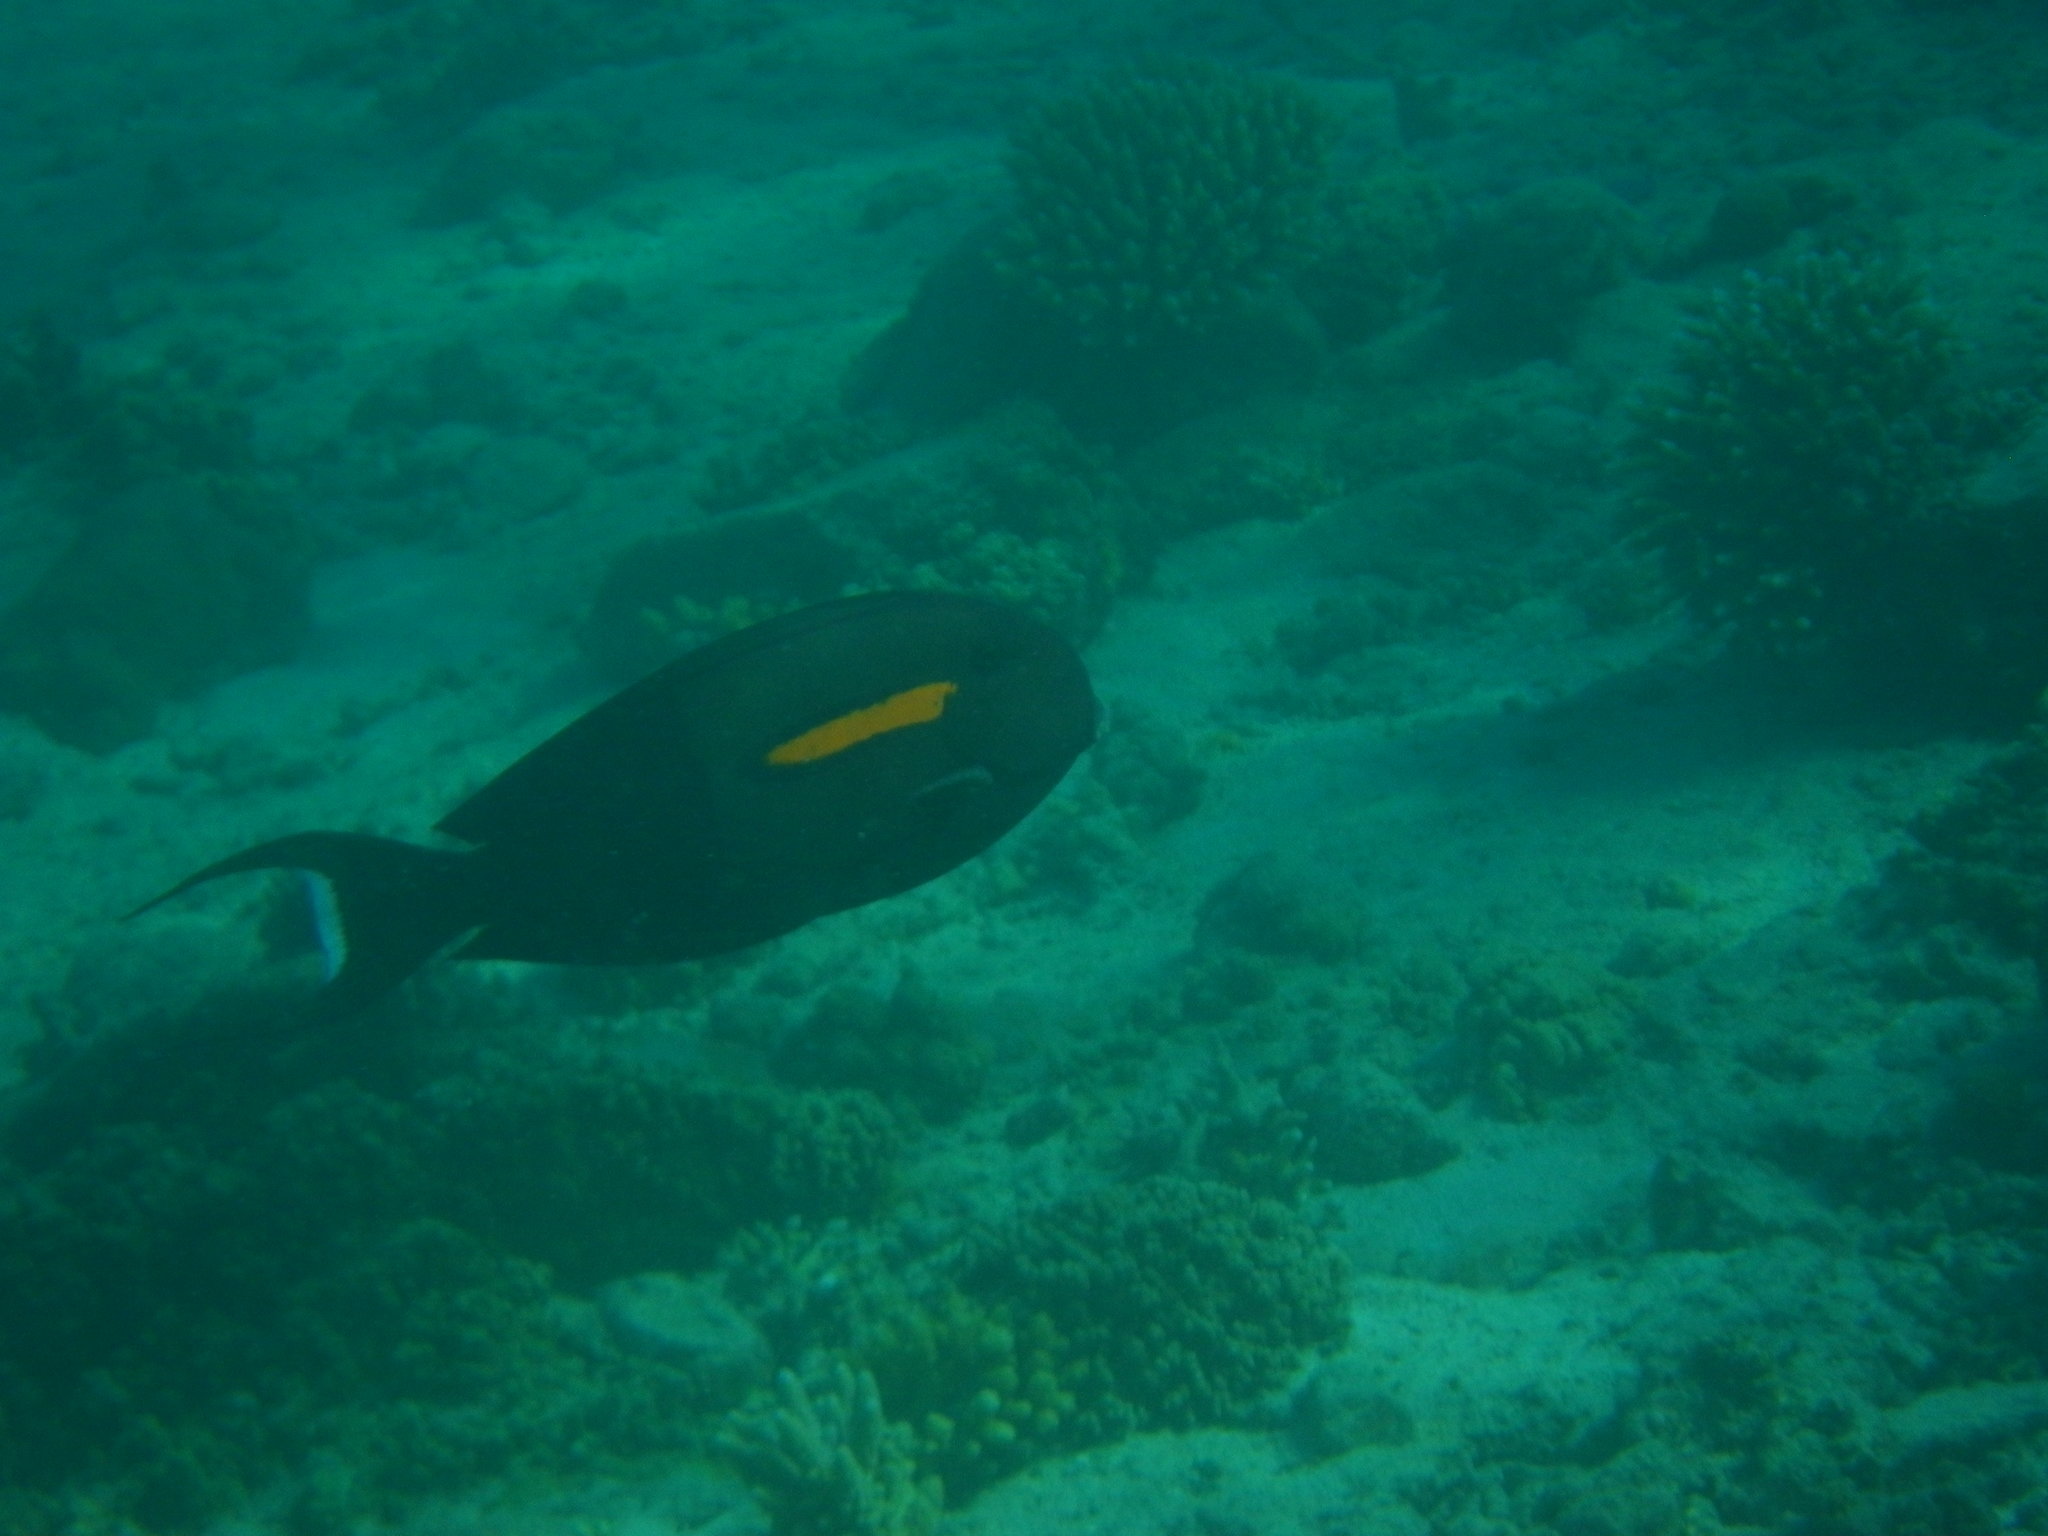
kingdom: Animalia
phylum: Chordata
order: Perciformes
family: Acanthuridae
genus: Acanthurus
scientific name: Acanthurus olivaceus
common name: Gendarme fish
